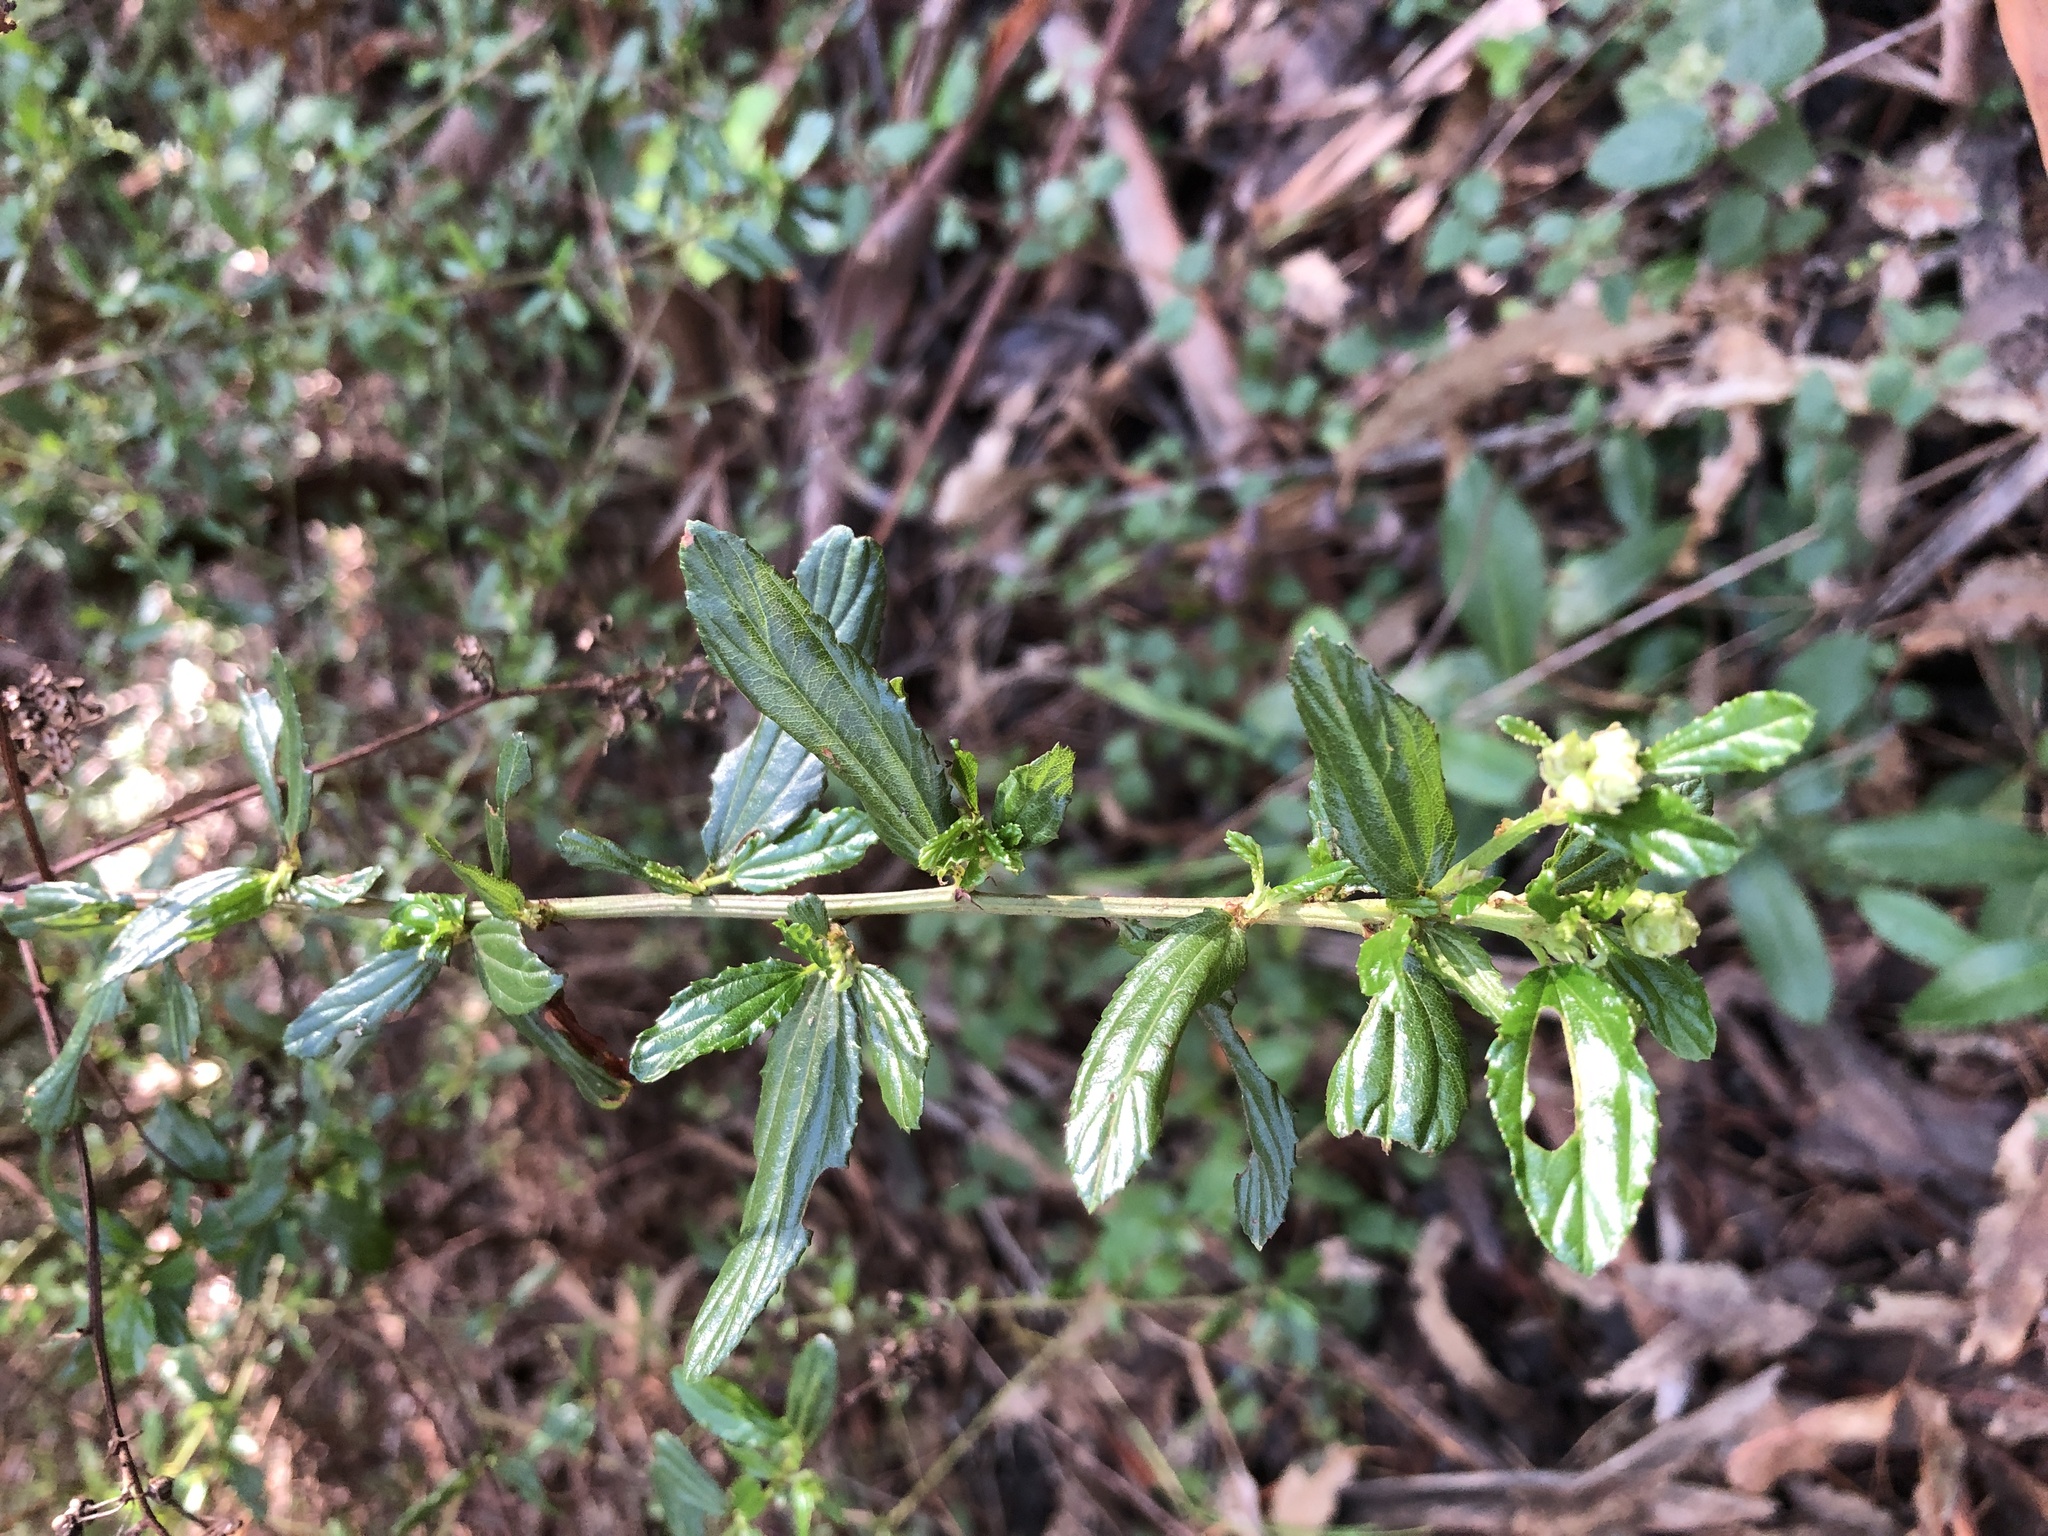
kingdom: Plantae
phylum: Tracheophyta
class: Magnoliopsida
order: Rosales
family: Rhamnaceae
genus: Ceanothus
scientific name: Ceanothus thyrsiflorus
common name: California-lilac
